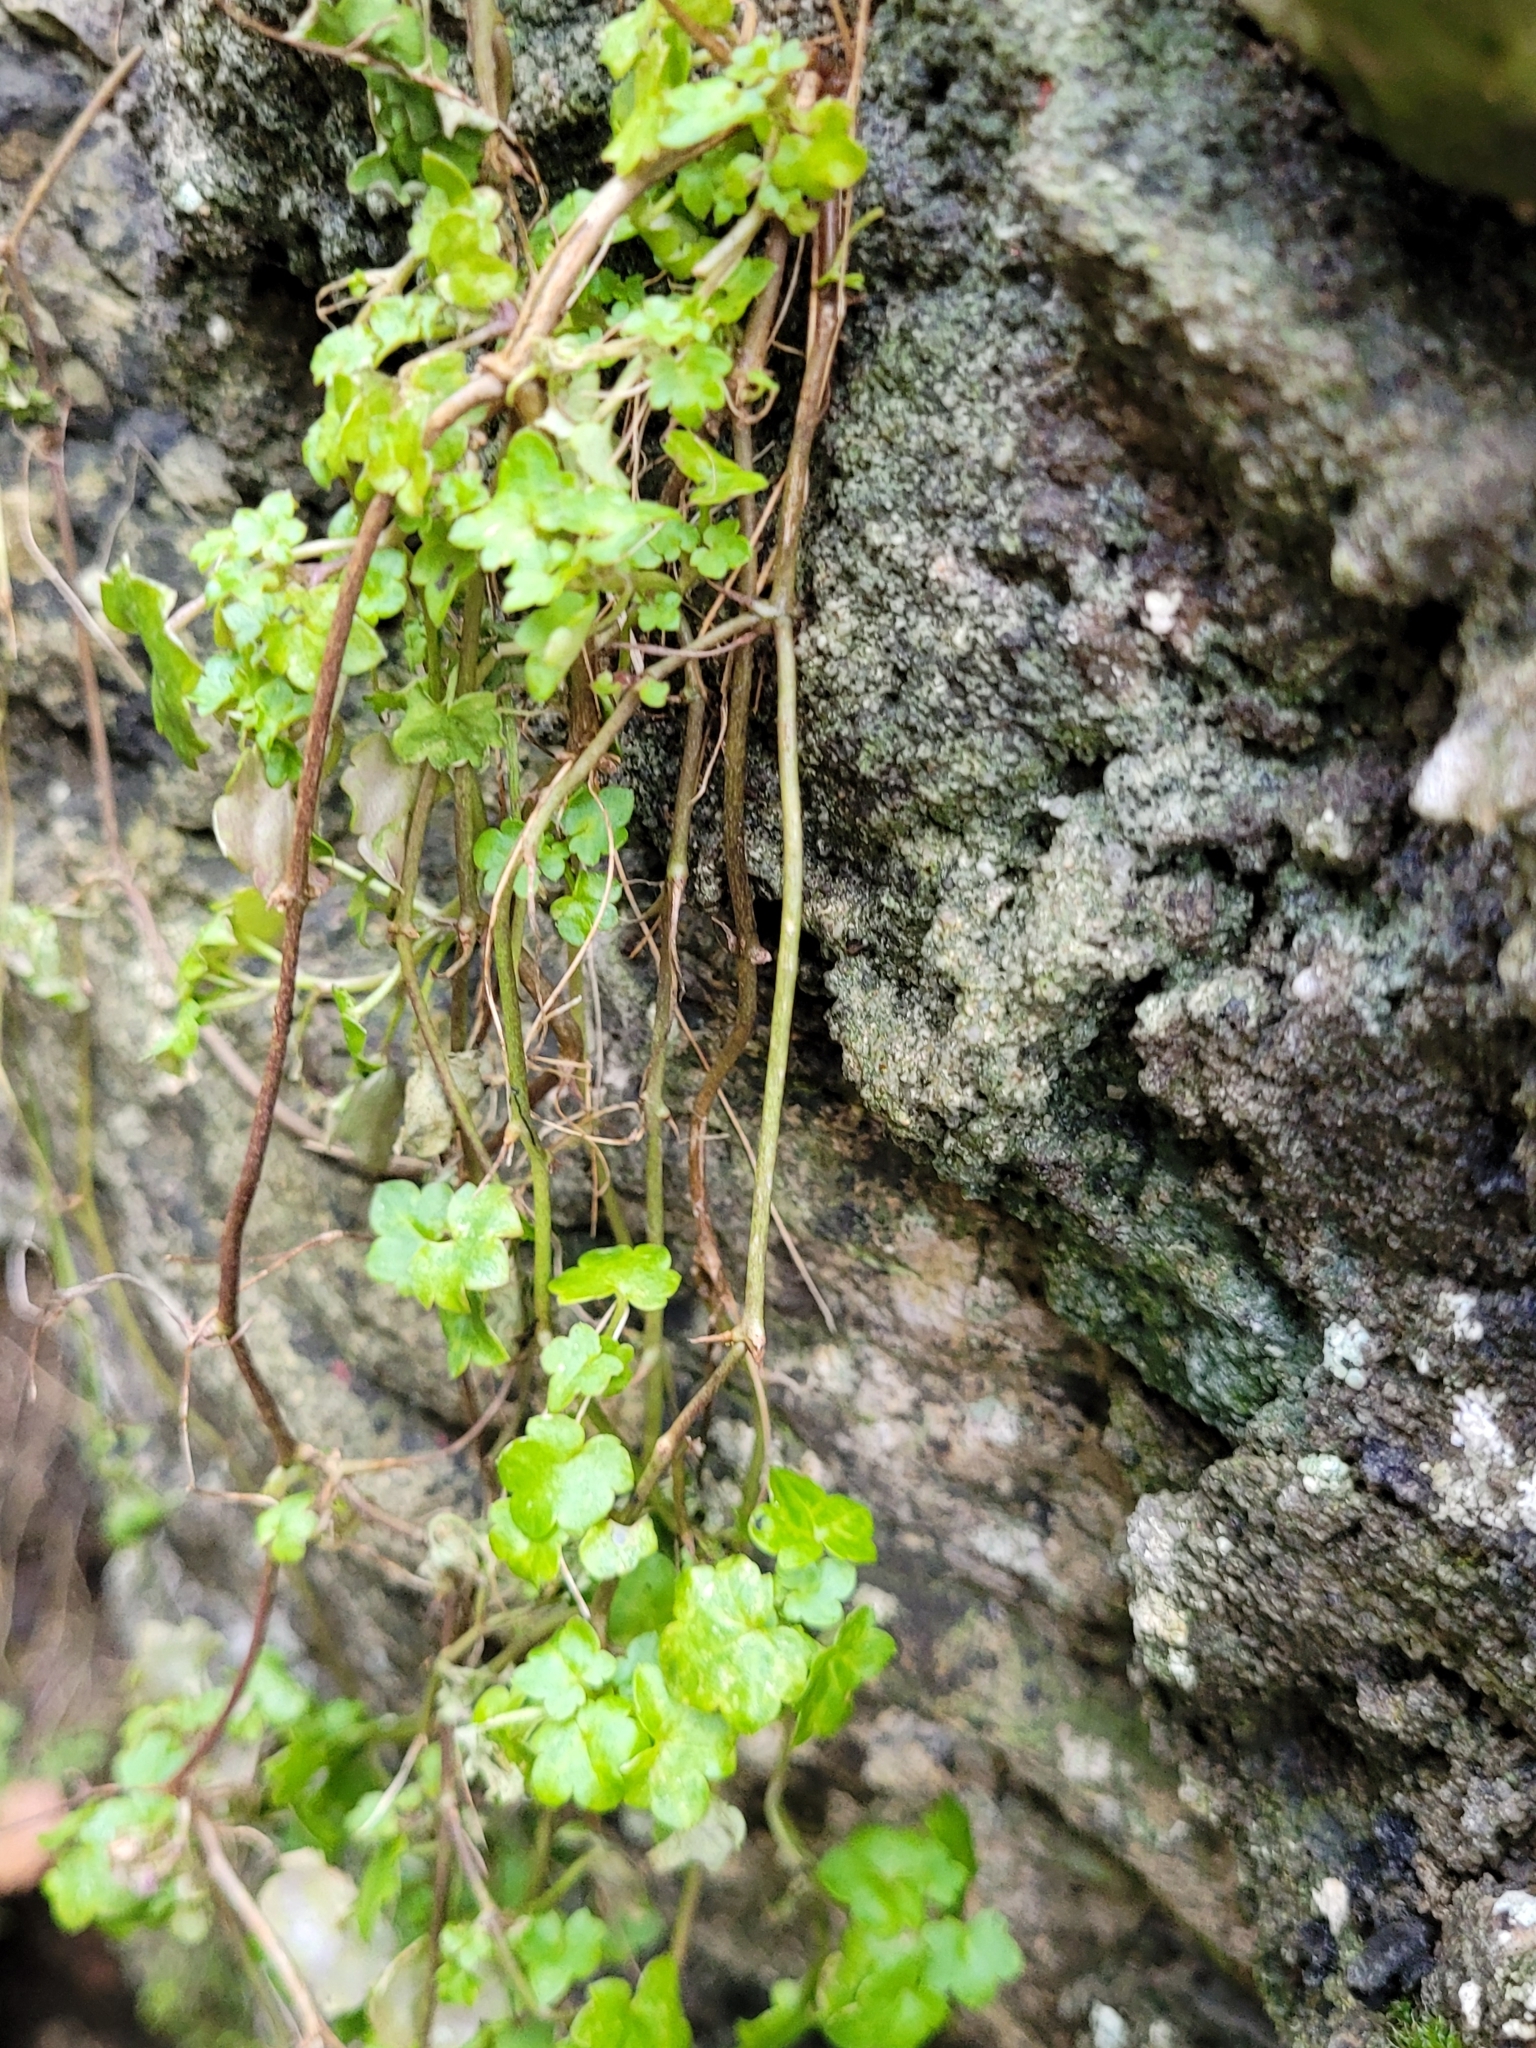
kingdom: Plantae
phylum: Tracheophyta
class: Magnoliopsida
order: Lamiales
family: Plantaginaceae
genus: Cymbalaria
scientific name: Cymbalaria muralis
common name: Ivy-leaved toadflax
